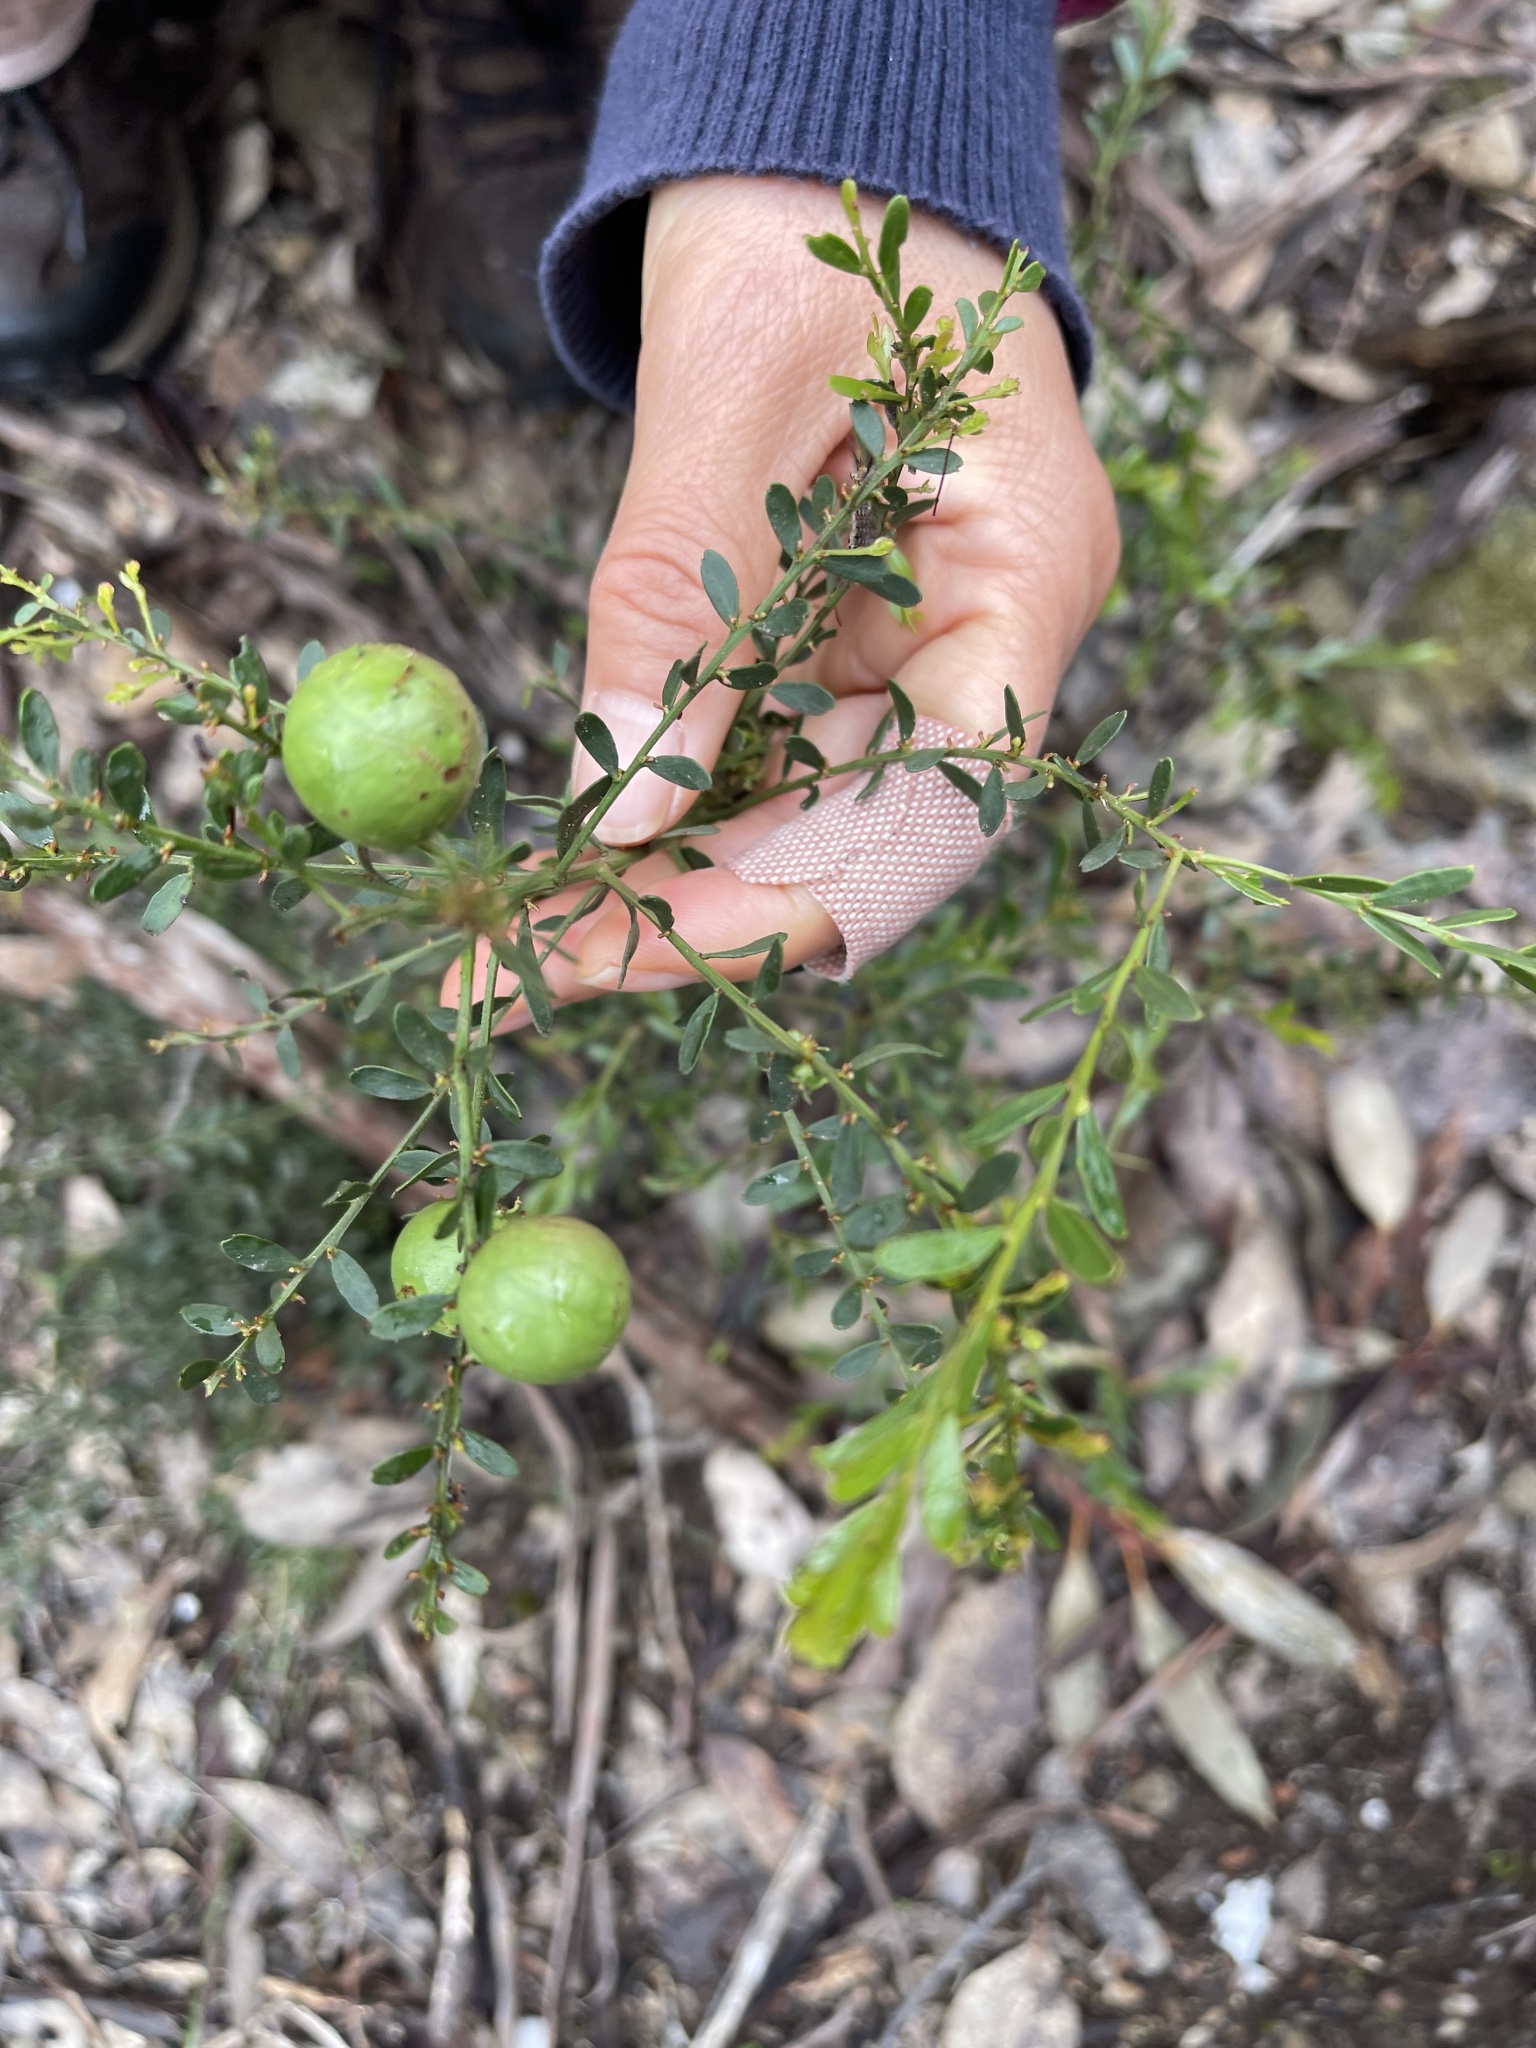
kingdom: Plantae
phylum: Tracheophyta
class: Magnoliopsida
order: Fabales
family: Fabaceae
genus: Acacia
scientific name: Acacia acinacea
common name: Gold-dust acacia
